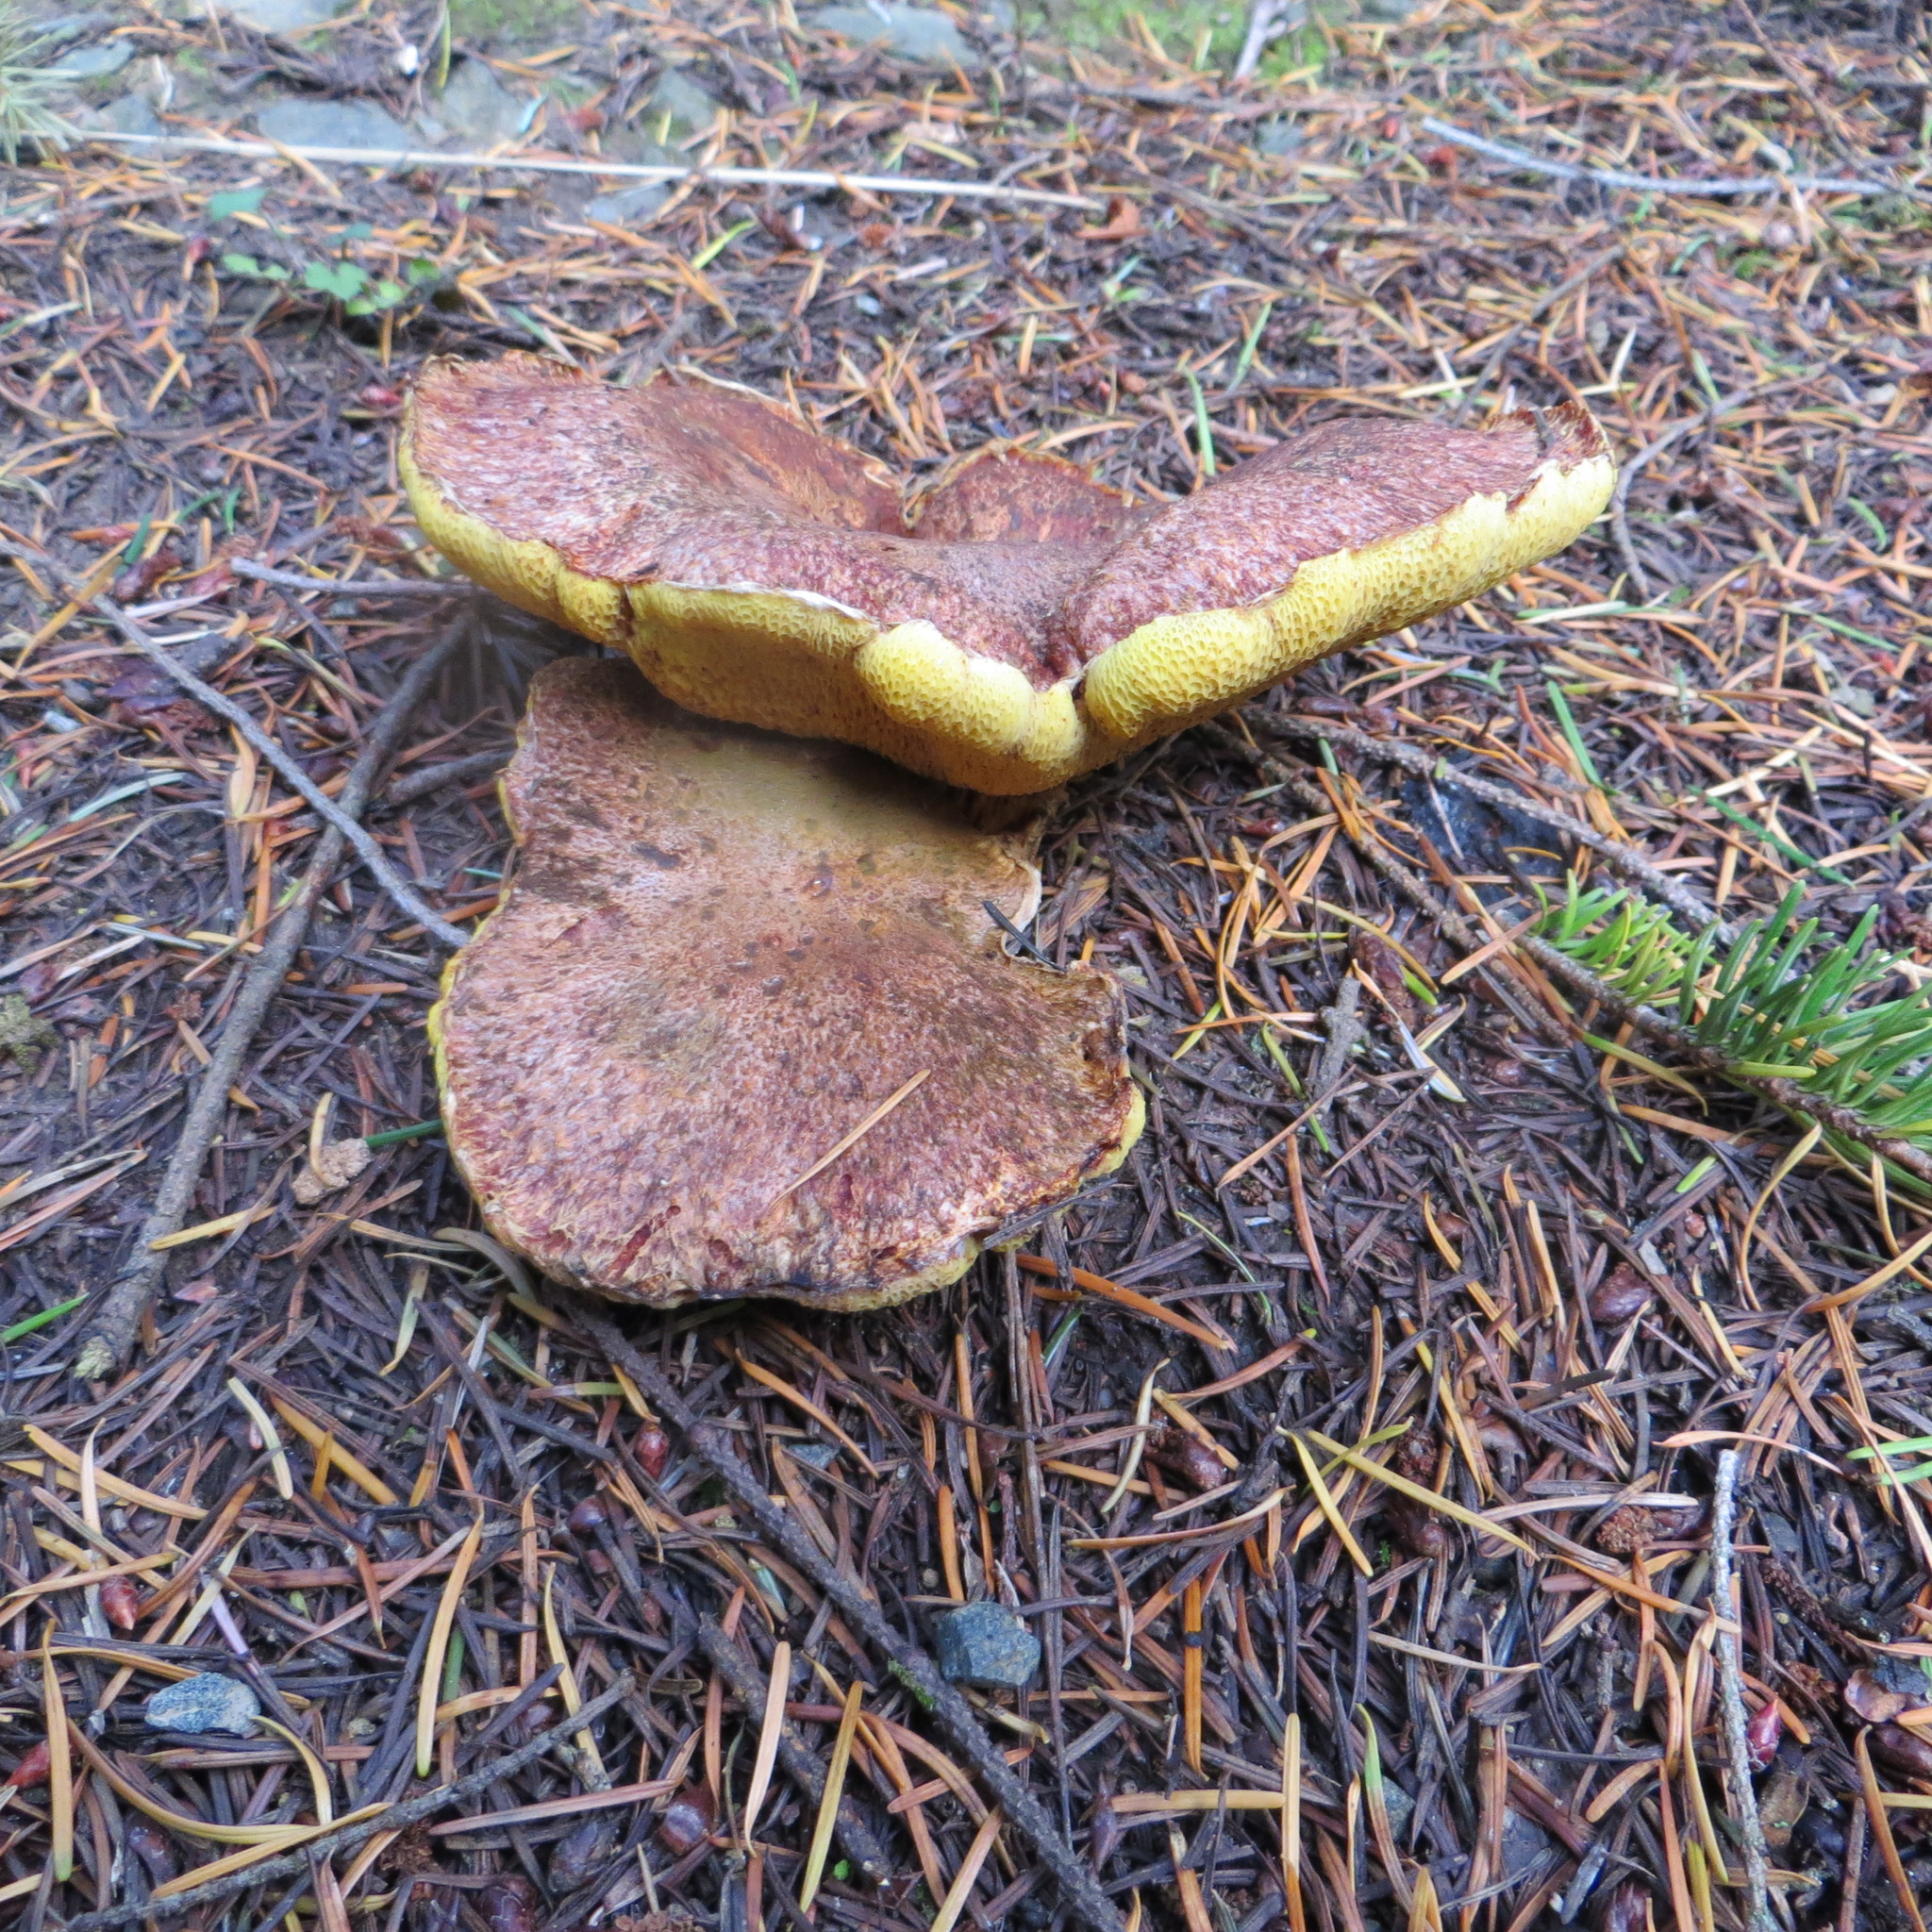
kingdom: Fungi
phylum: Basidiomycota
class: Agaricomycetes
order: Boletales
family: Suillaceae
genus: Suillus
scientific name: Suillus lakei
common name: Western painted suillus
